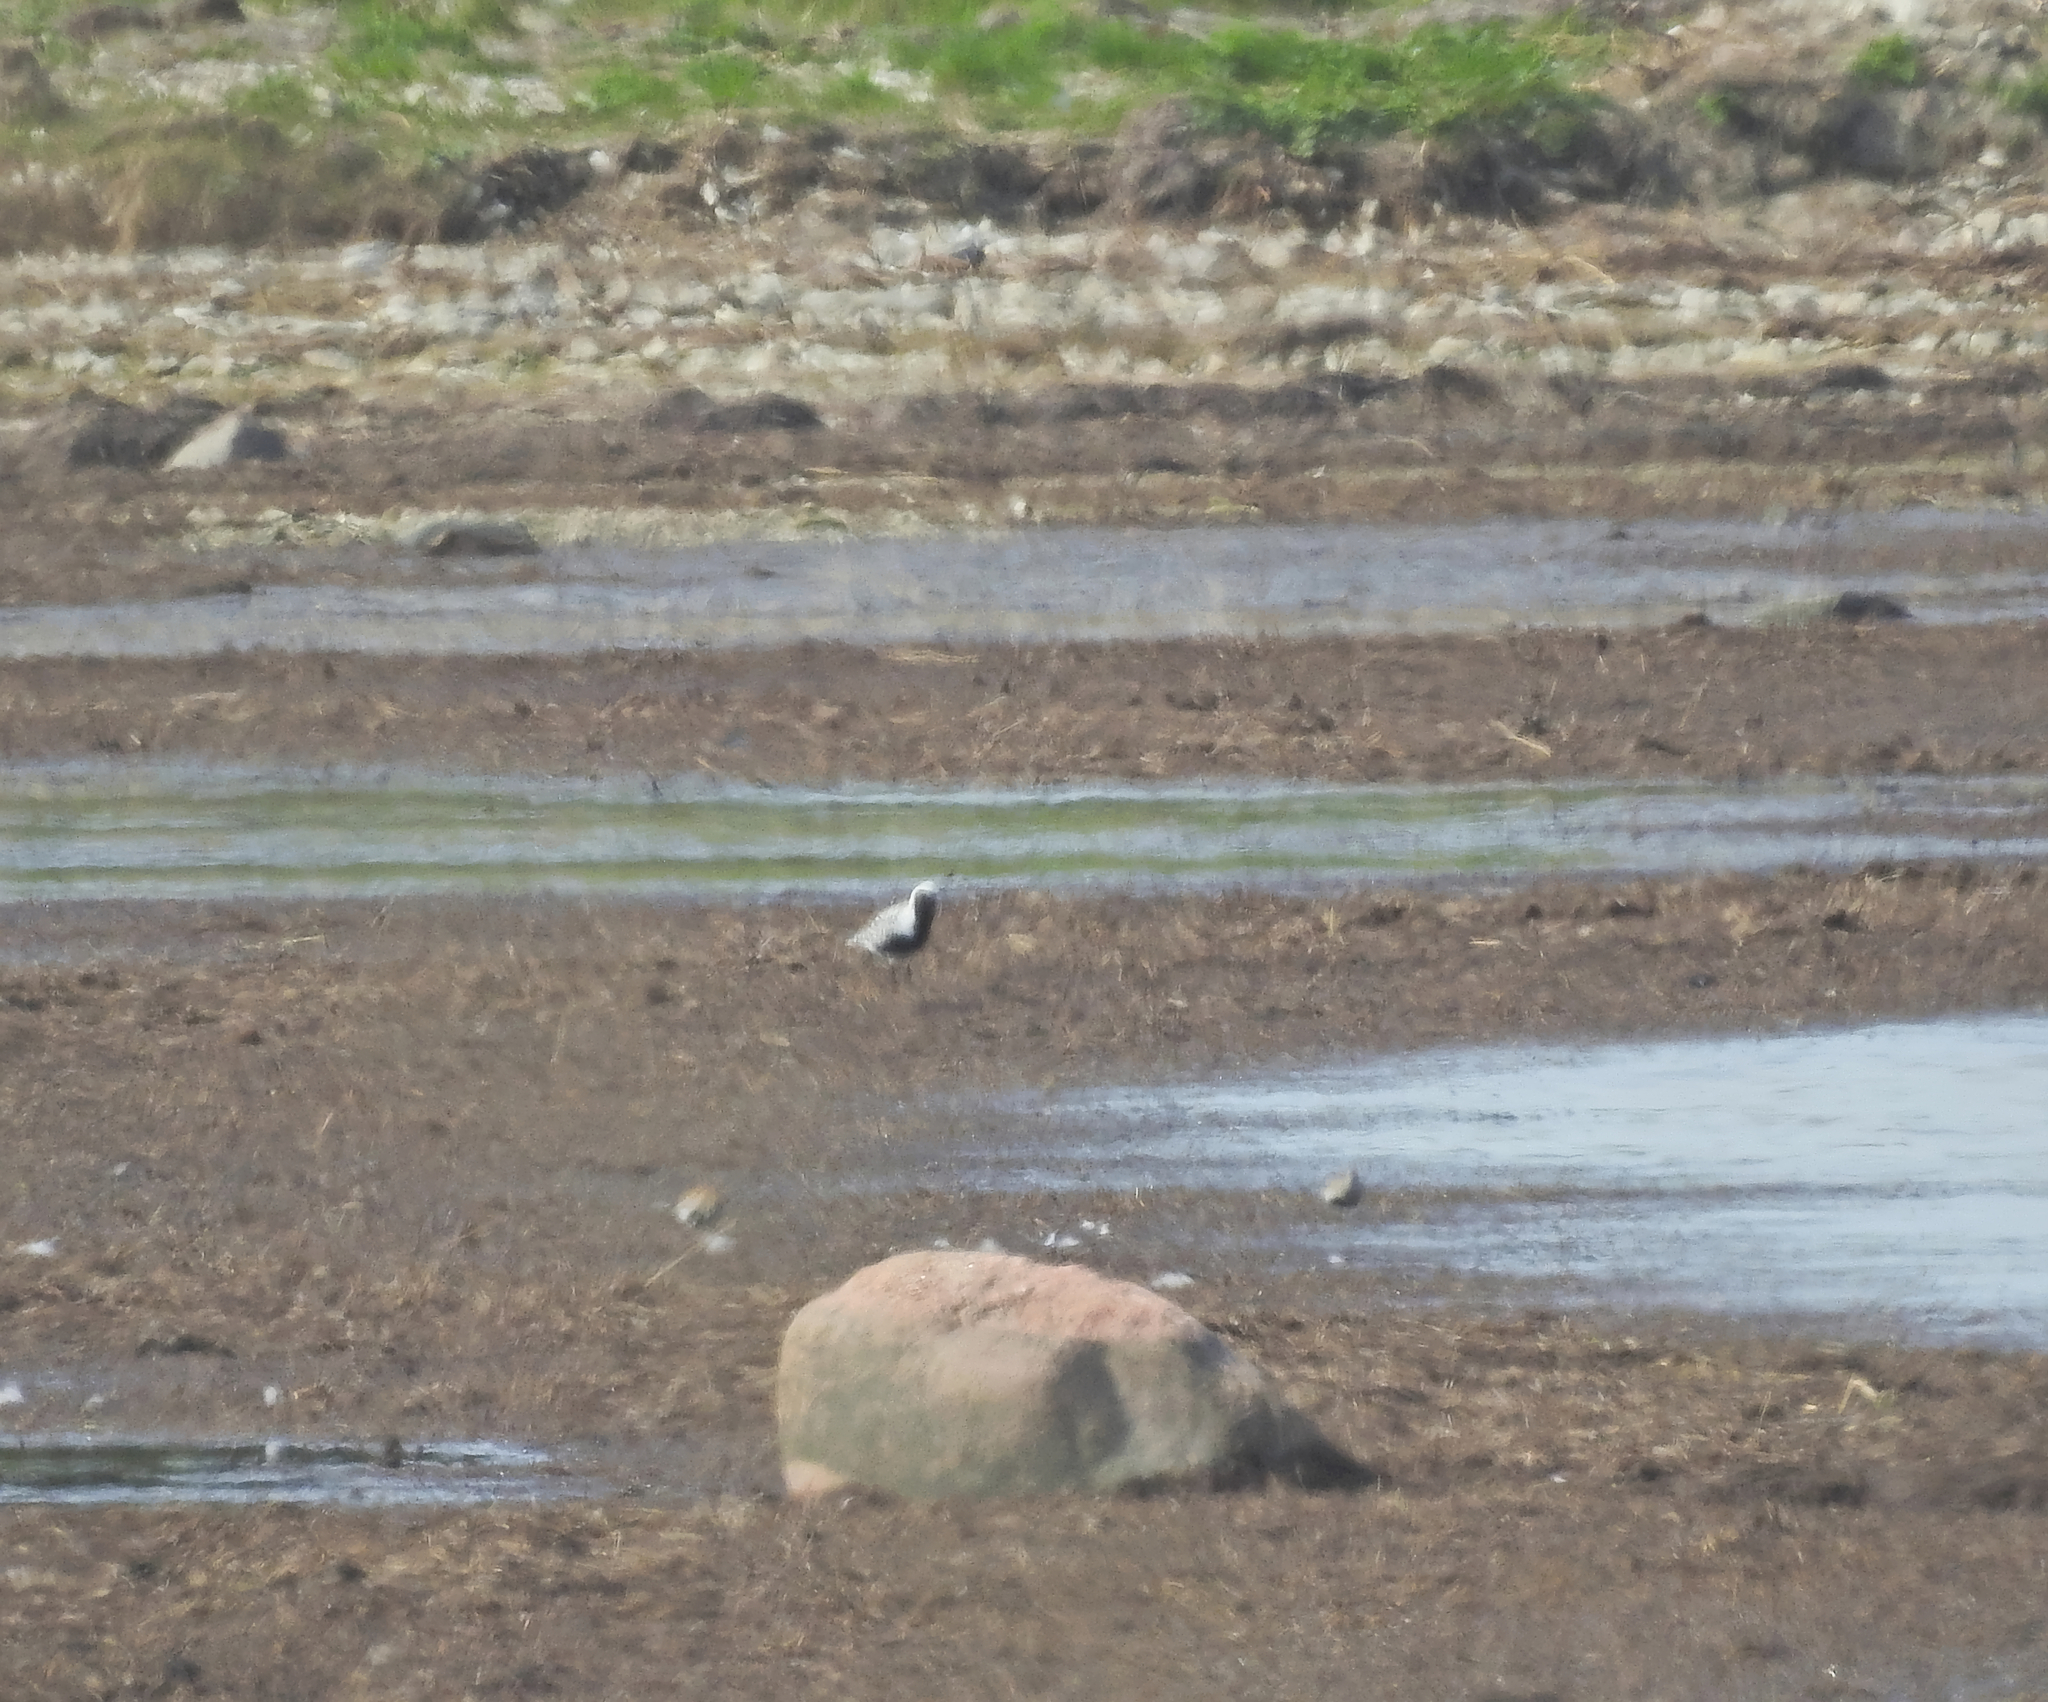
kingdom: Animalia
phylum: Chordata
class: Aves
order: Charadriiformes
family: Charadriidae
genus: Pluvialis
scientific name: Pluvialis squatarola
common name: Grey plover
